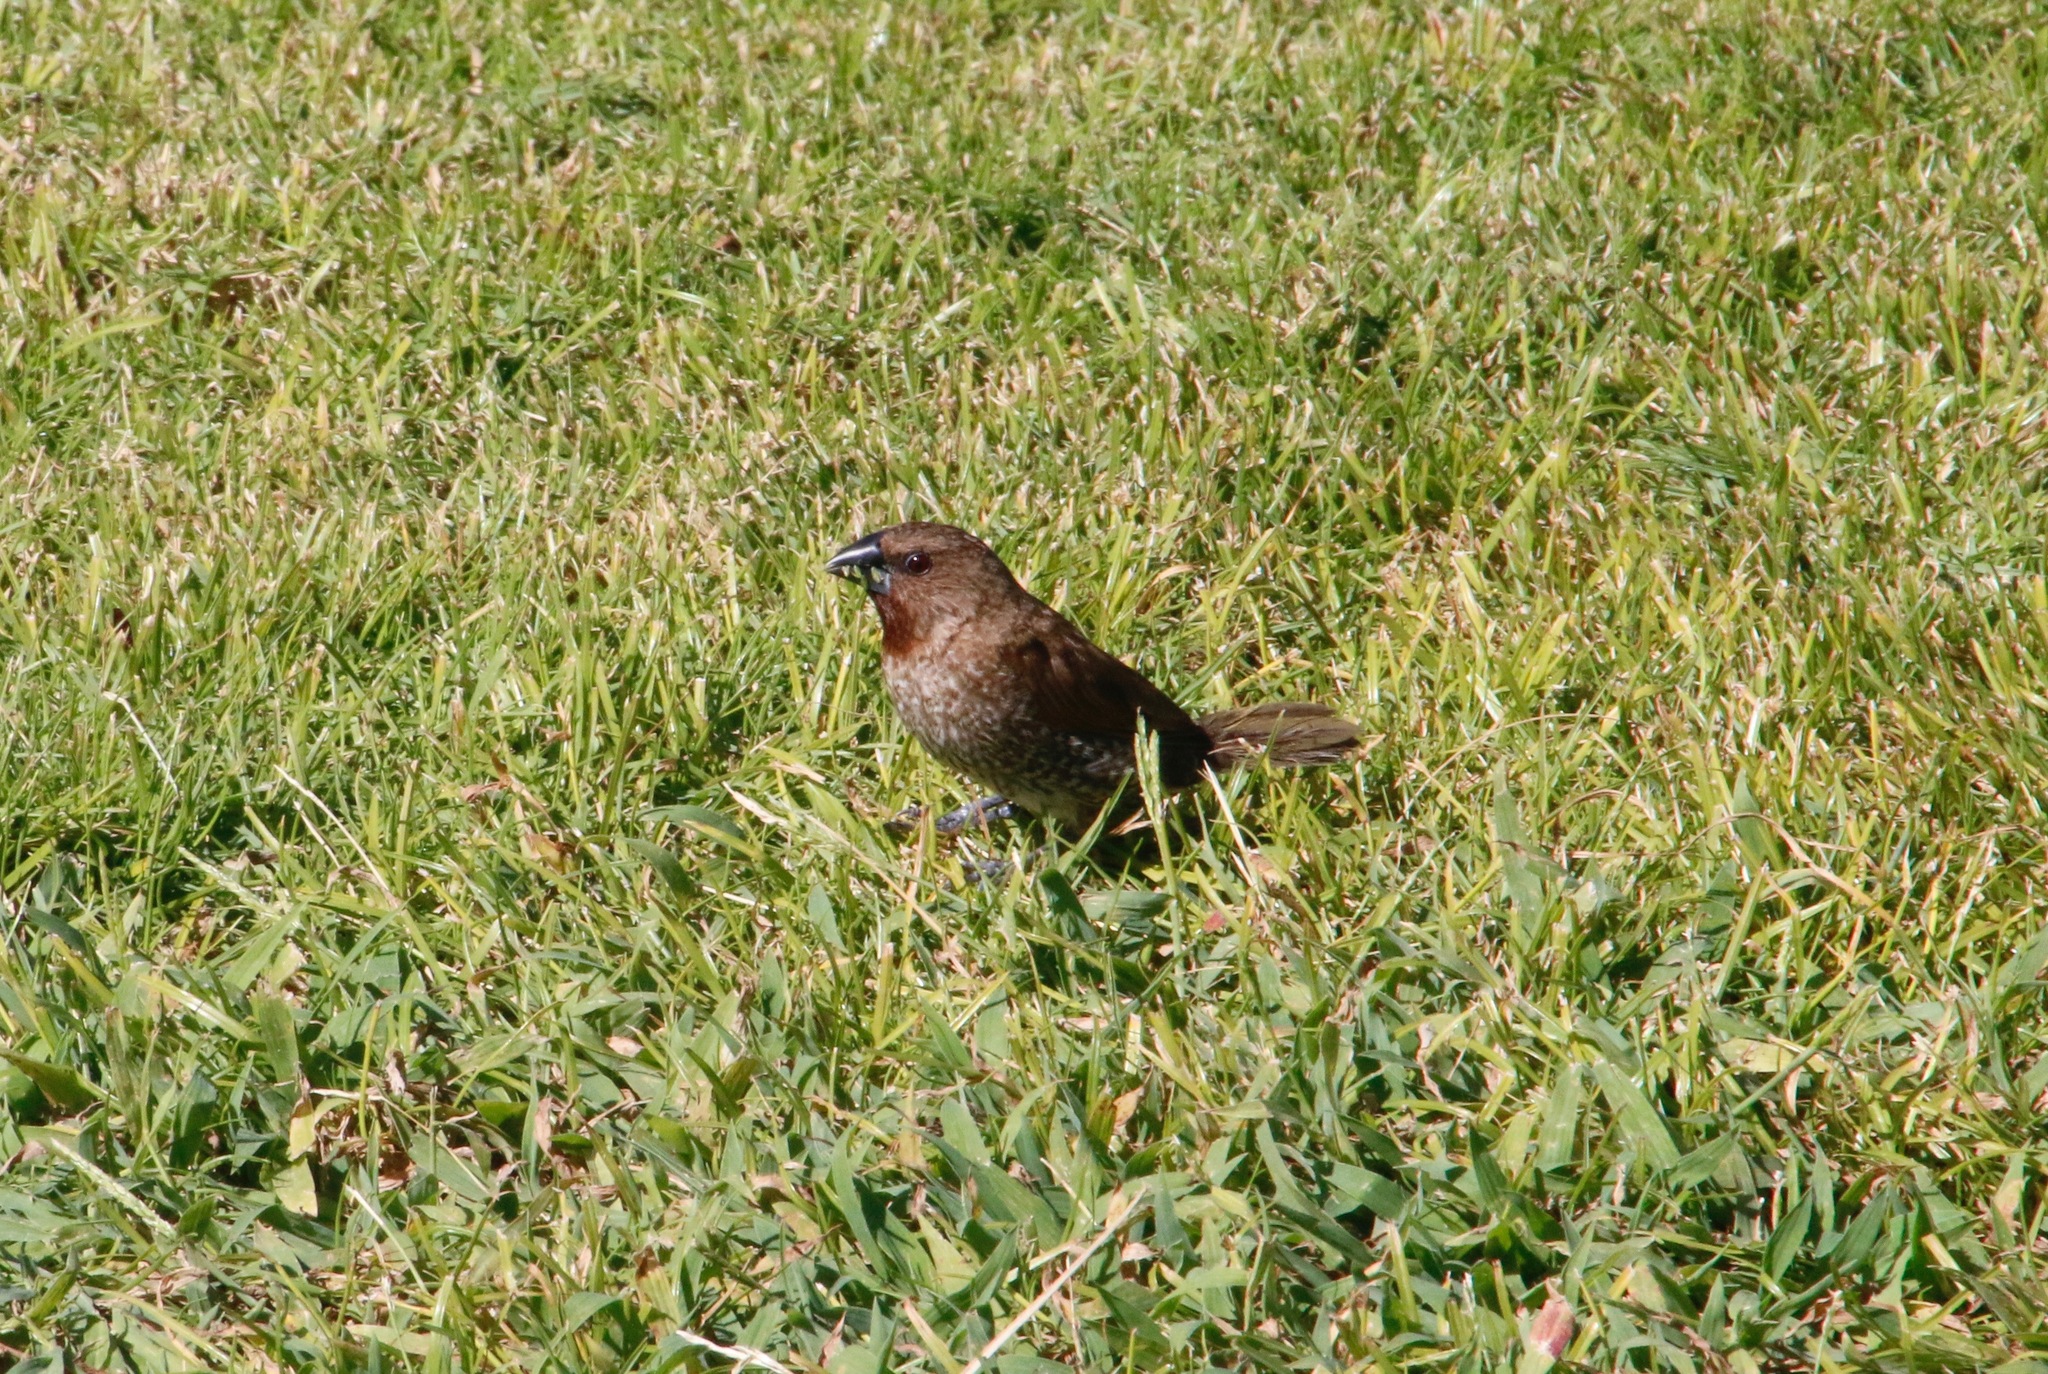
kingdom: Animalia
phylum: Chordata
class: Aves
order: Passeriformes
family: Estrildidae
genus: Lonchura
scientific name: Lonchura punctulata
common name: Scaly-breasted munia
